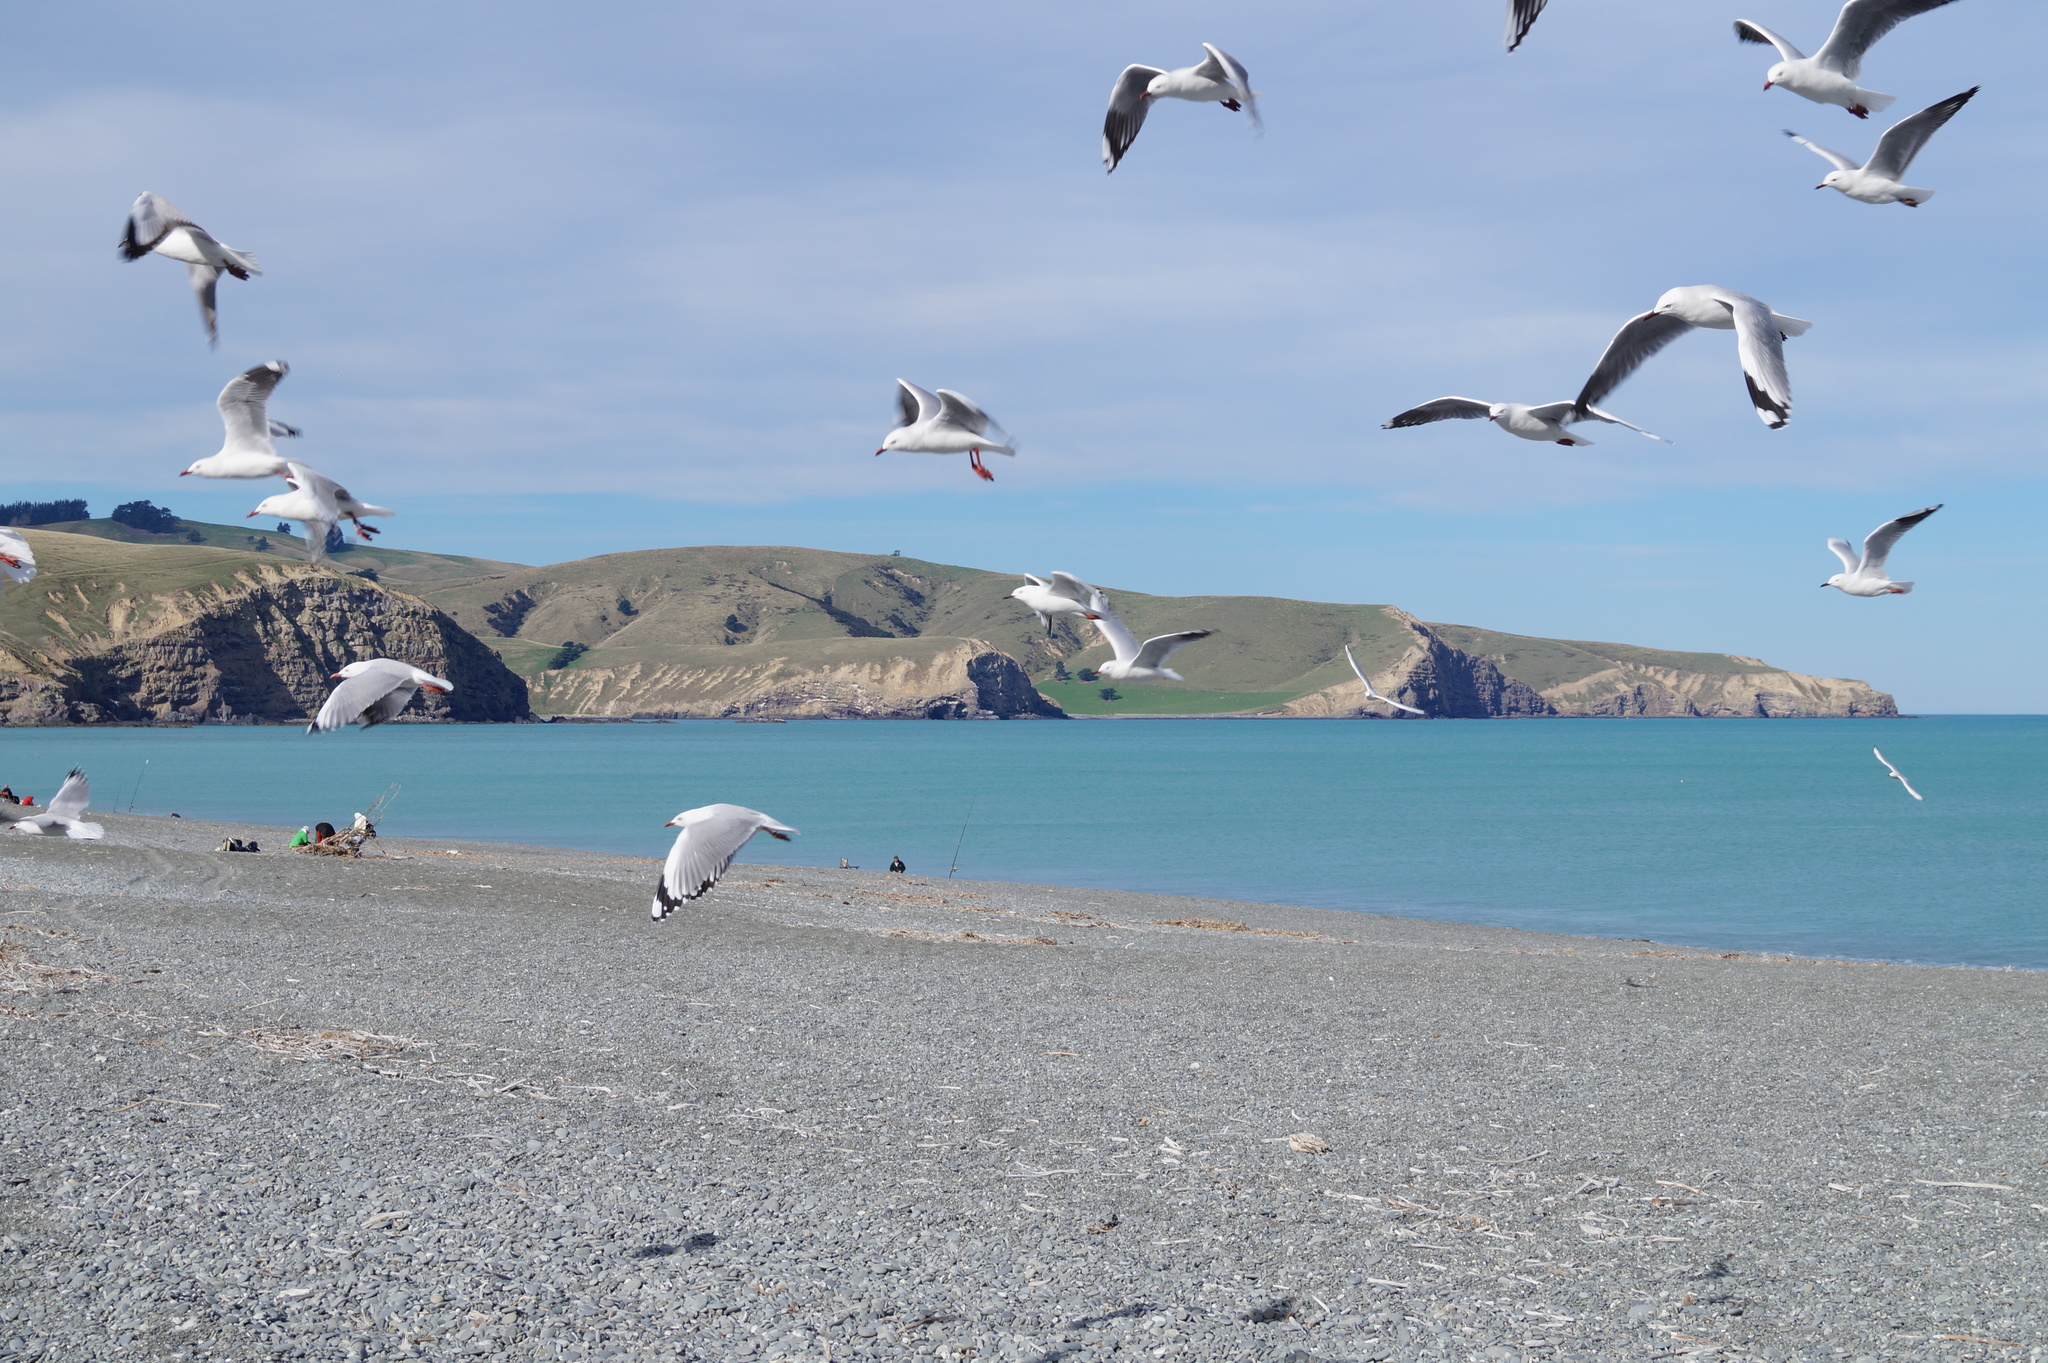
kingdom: Animalia
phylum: Chordata
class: Aves
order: Charadriiformes
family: Laridae
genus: Chroicocephalus
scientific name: Chroicocephalus novaehollandiae
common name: Silver gull
